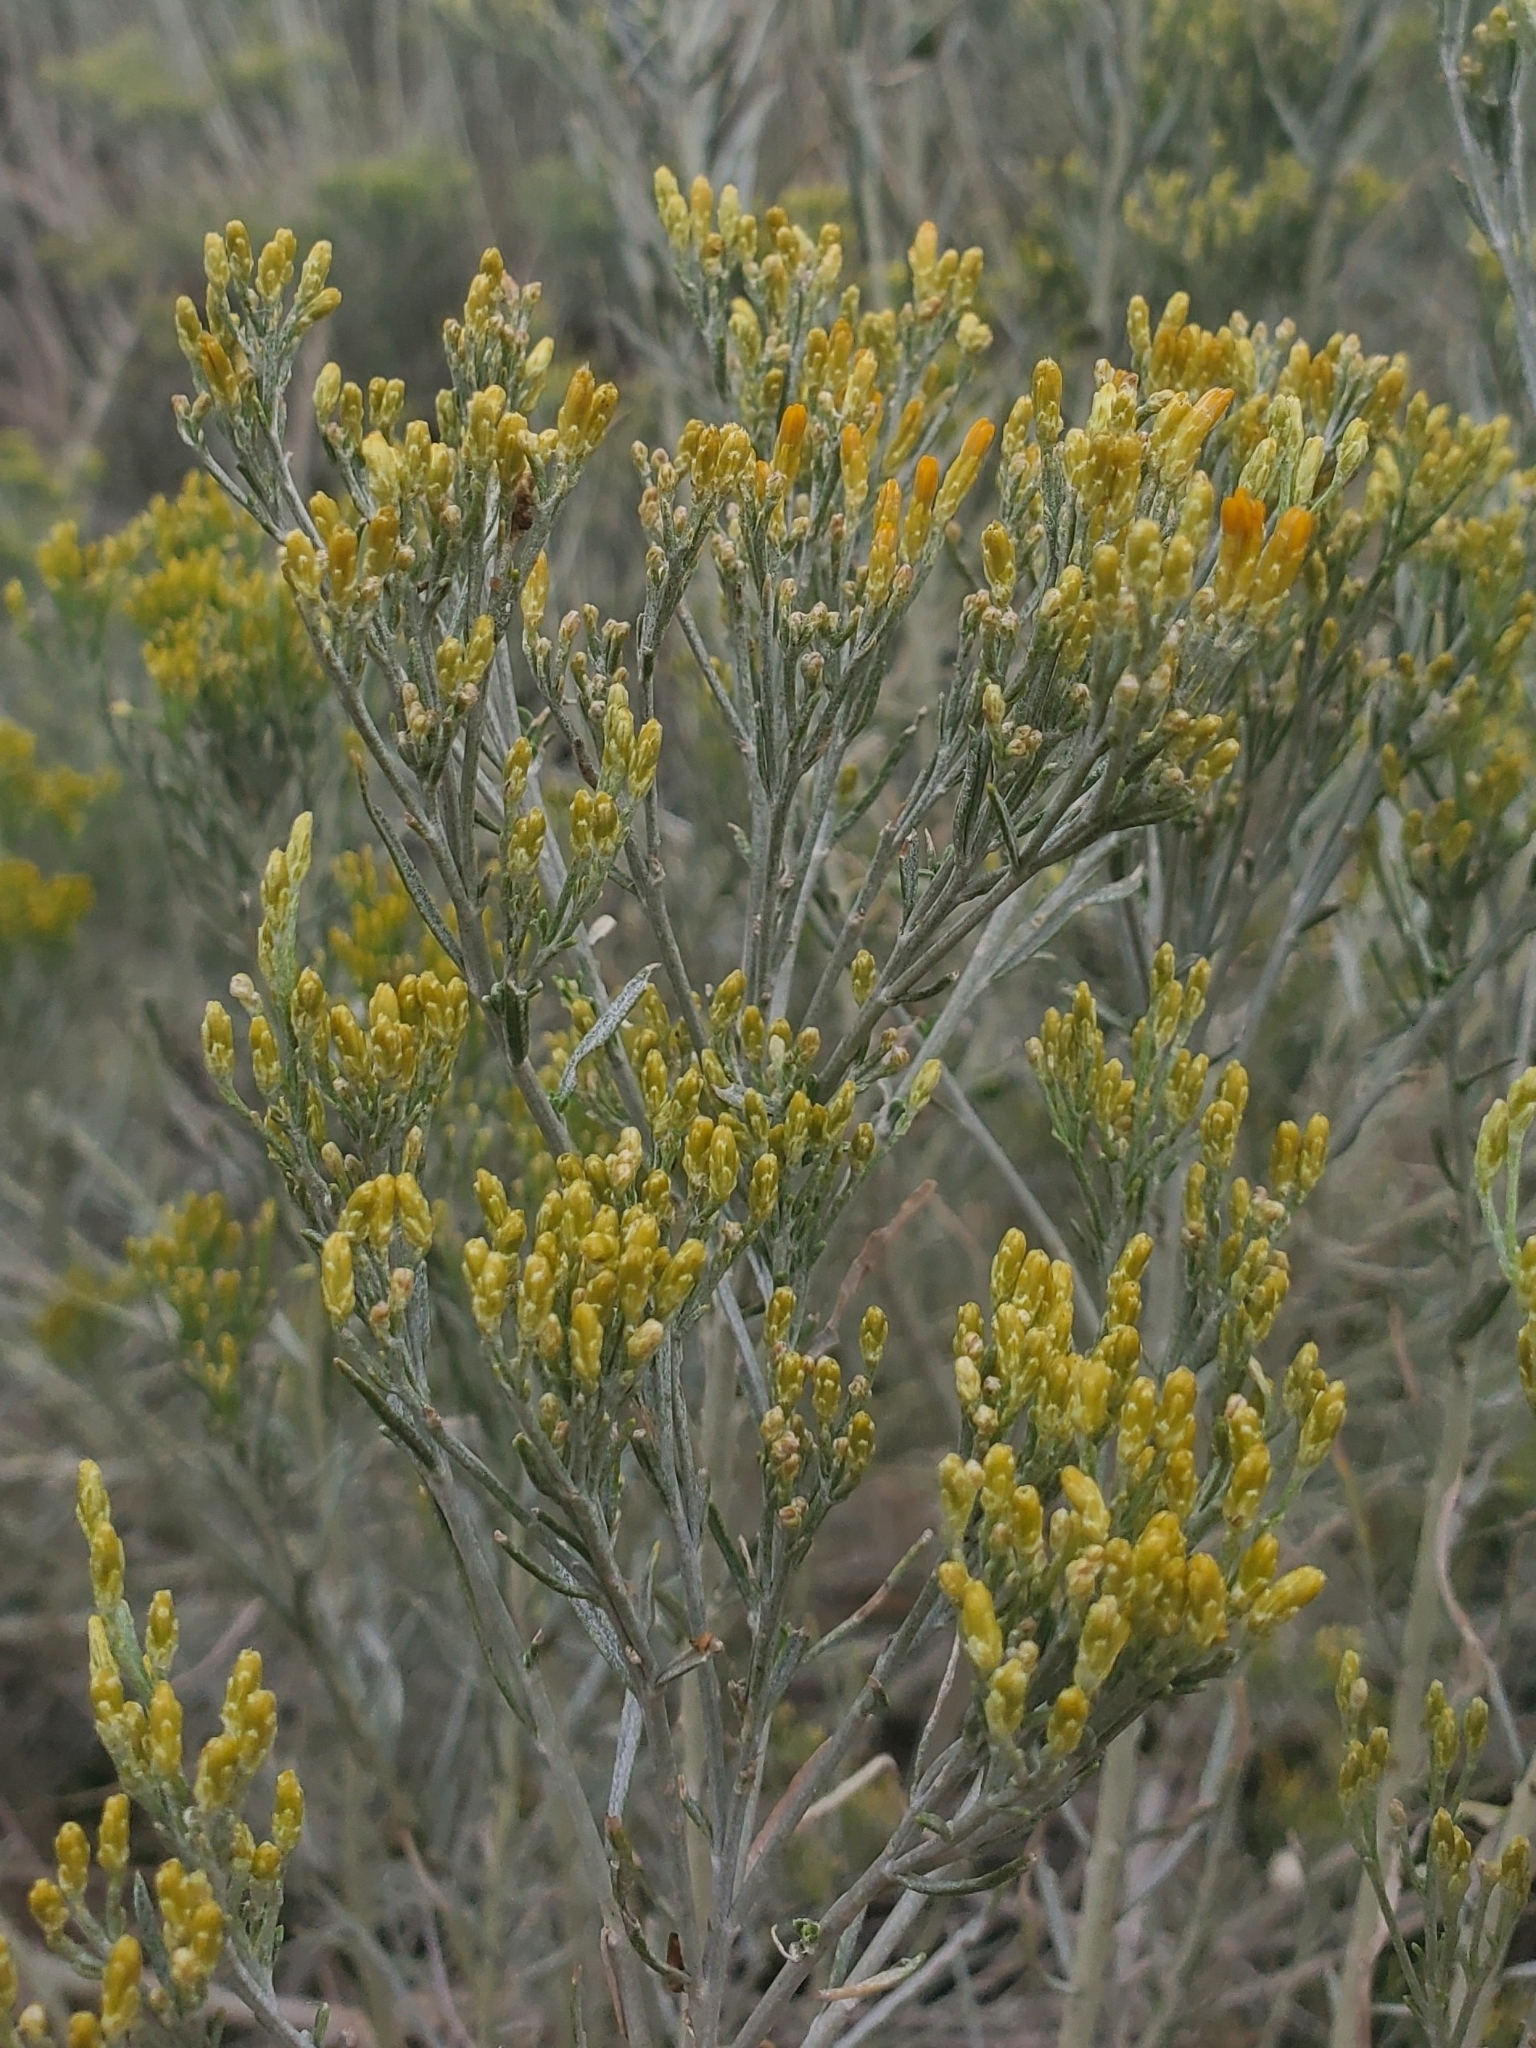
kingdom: Plantae
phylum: Tracheophyta
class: Magnoliopsida
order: Asterales
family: Asteraceae
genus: Ericameria
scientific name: Ericameria nauseosa
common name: Rubber rabbitbrush
